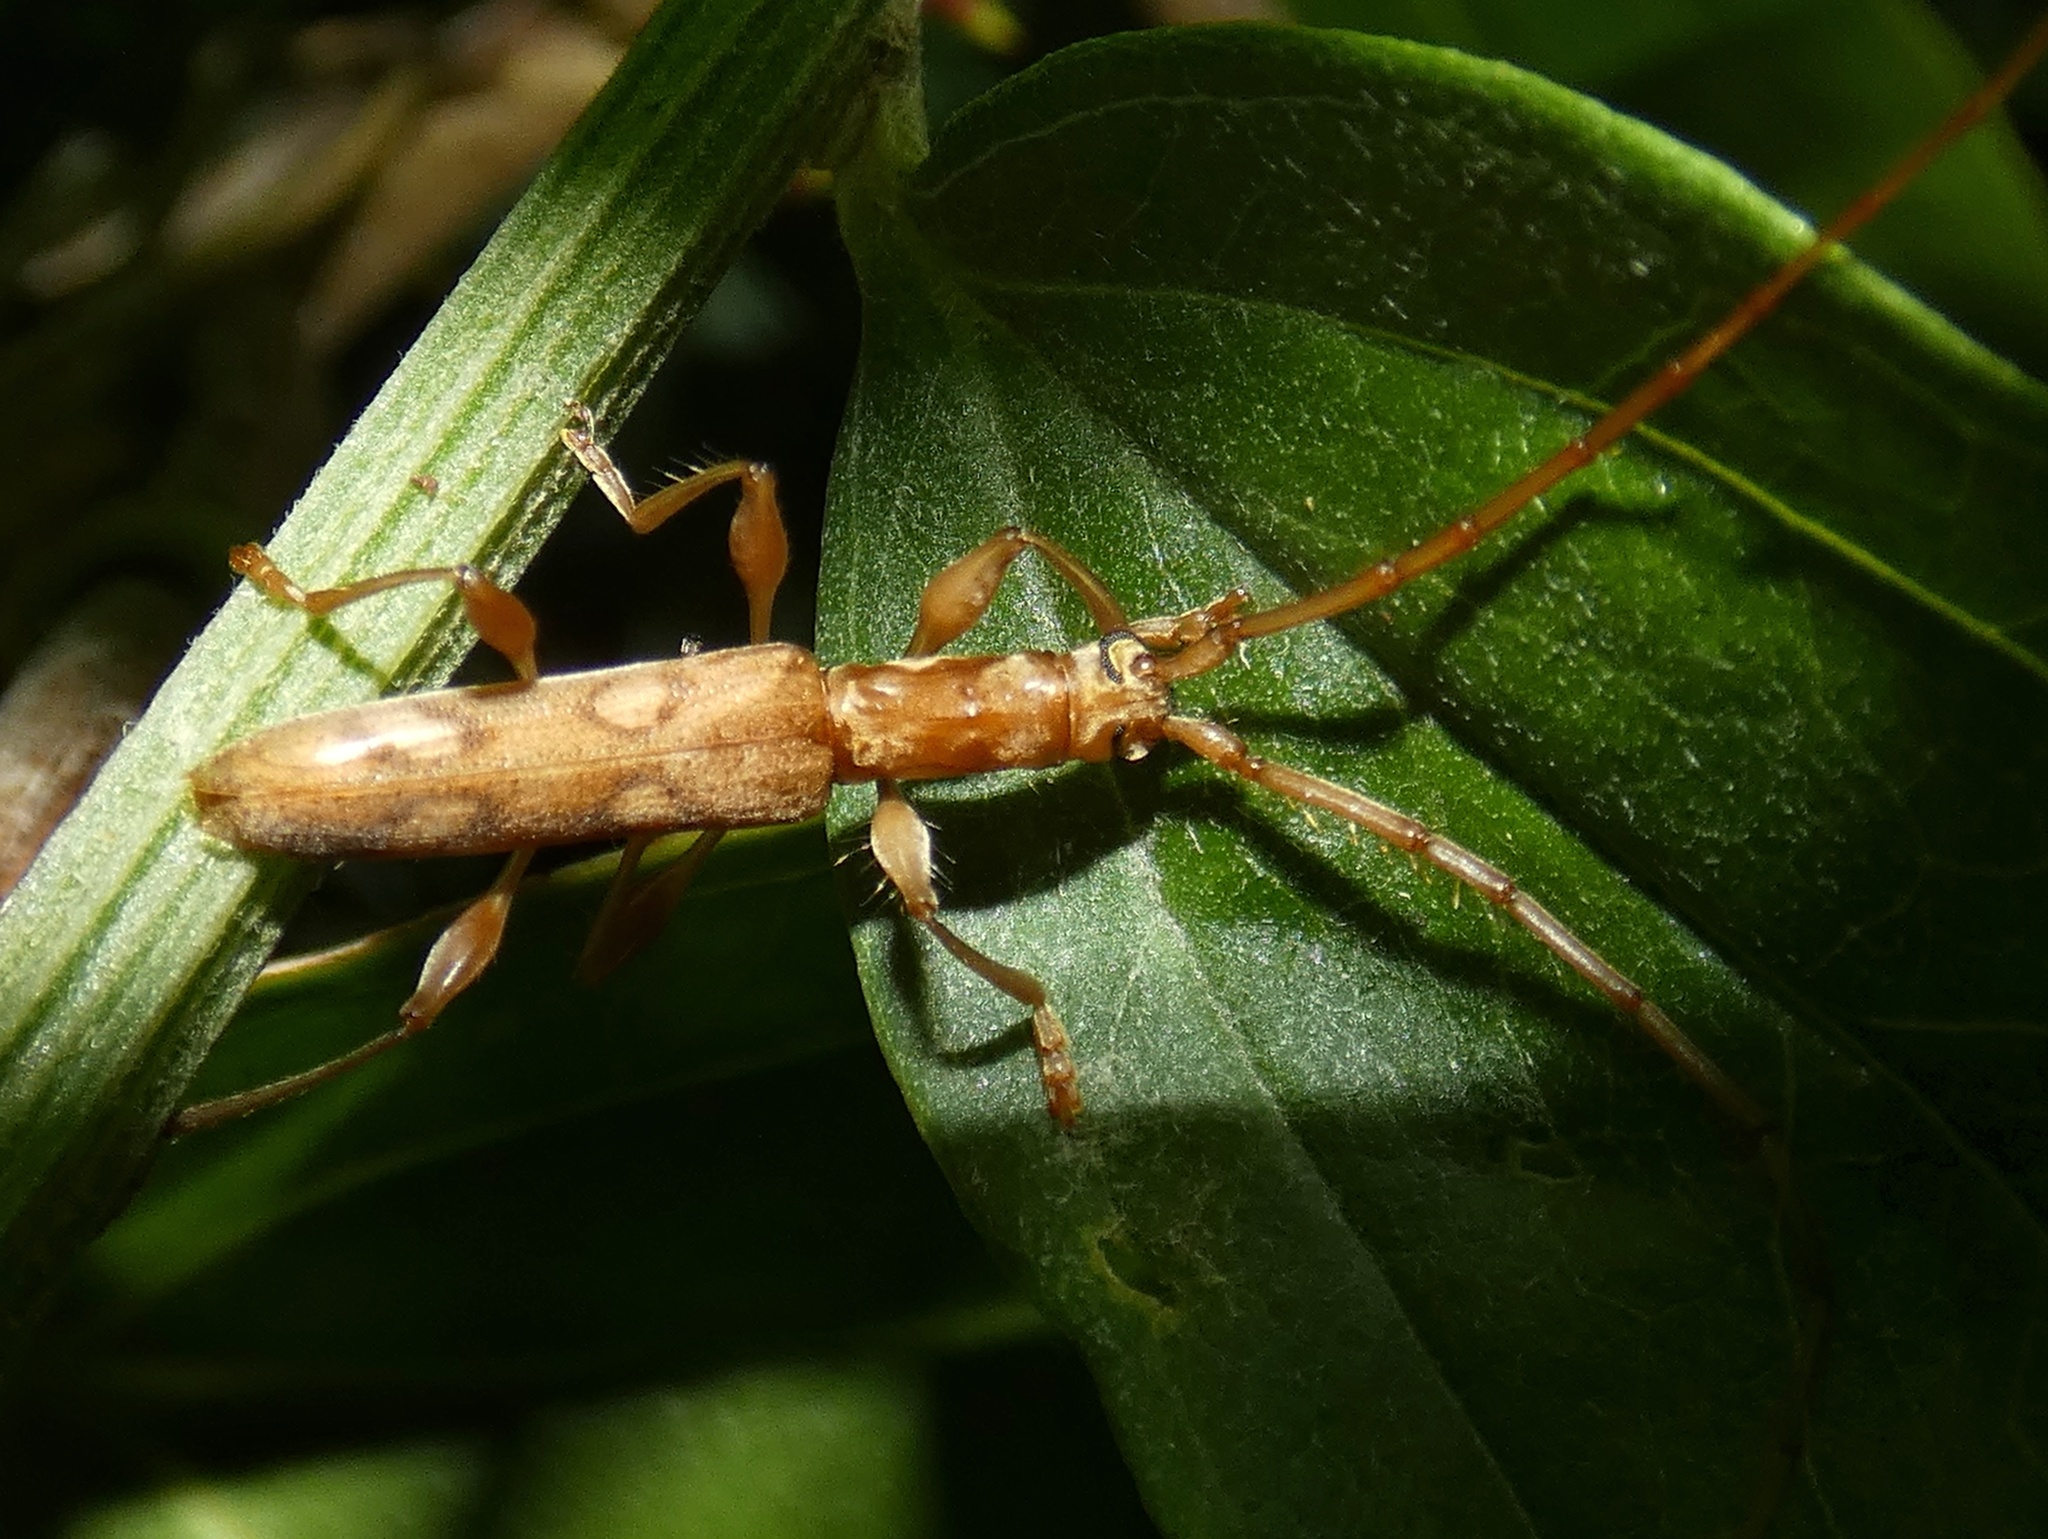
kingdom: Animalia
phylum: Arthropoda
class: Insecta
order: Coleoptera
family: Cerambycidae
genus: Neocompsa
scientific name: Neocompsa spinosa
